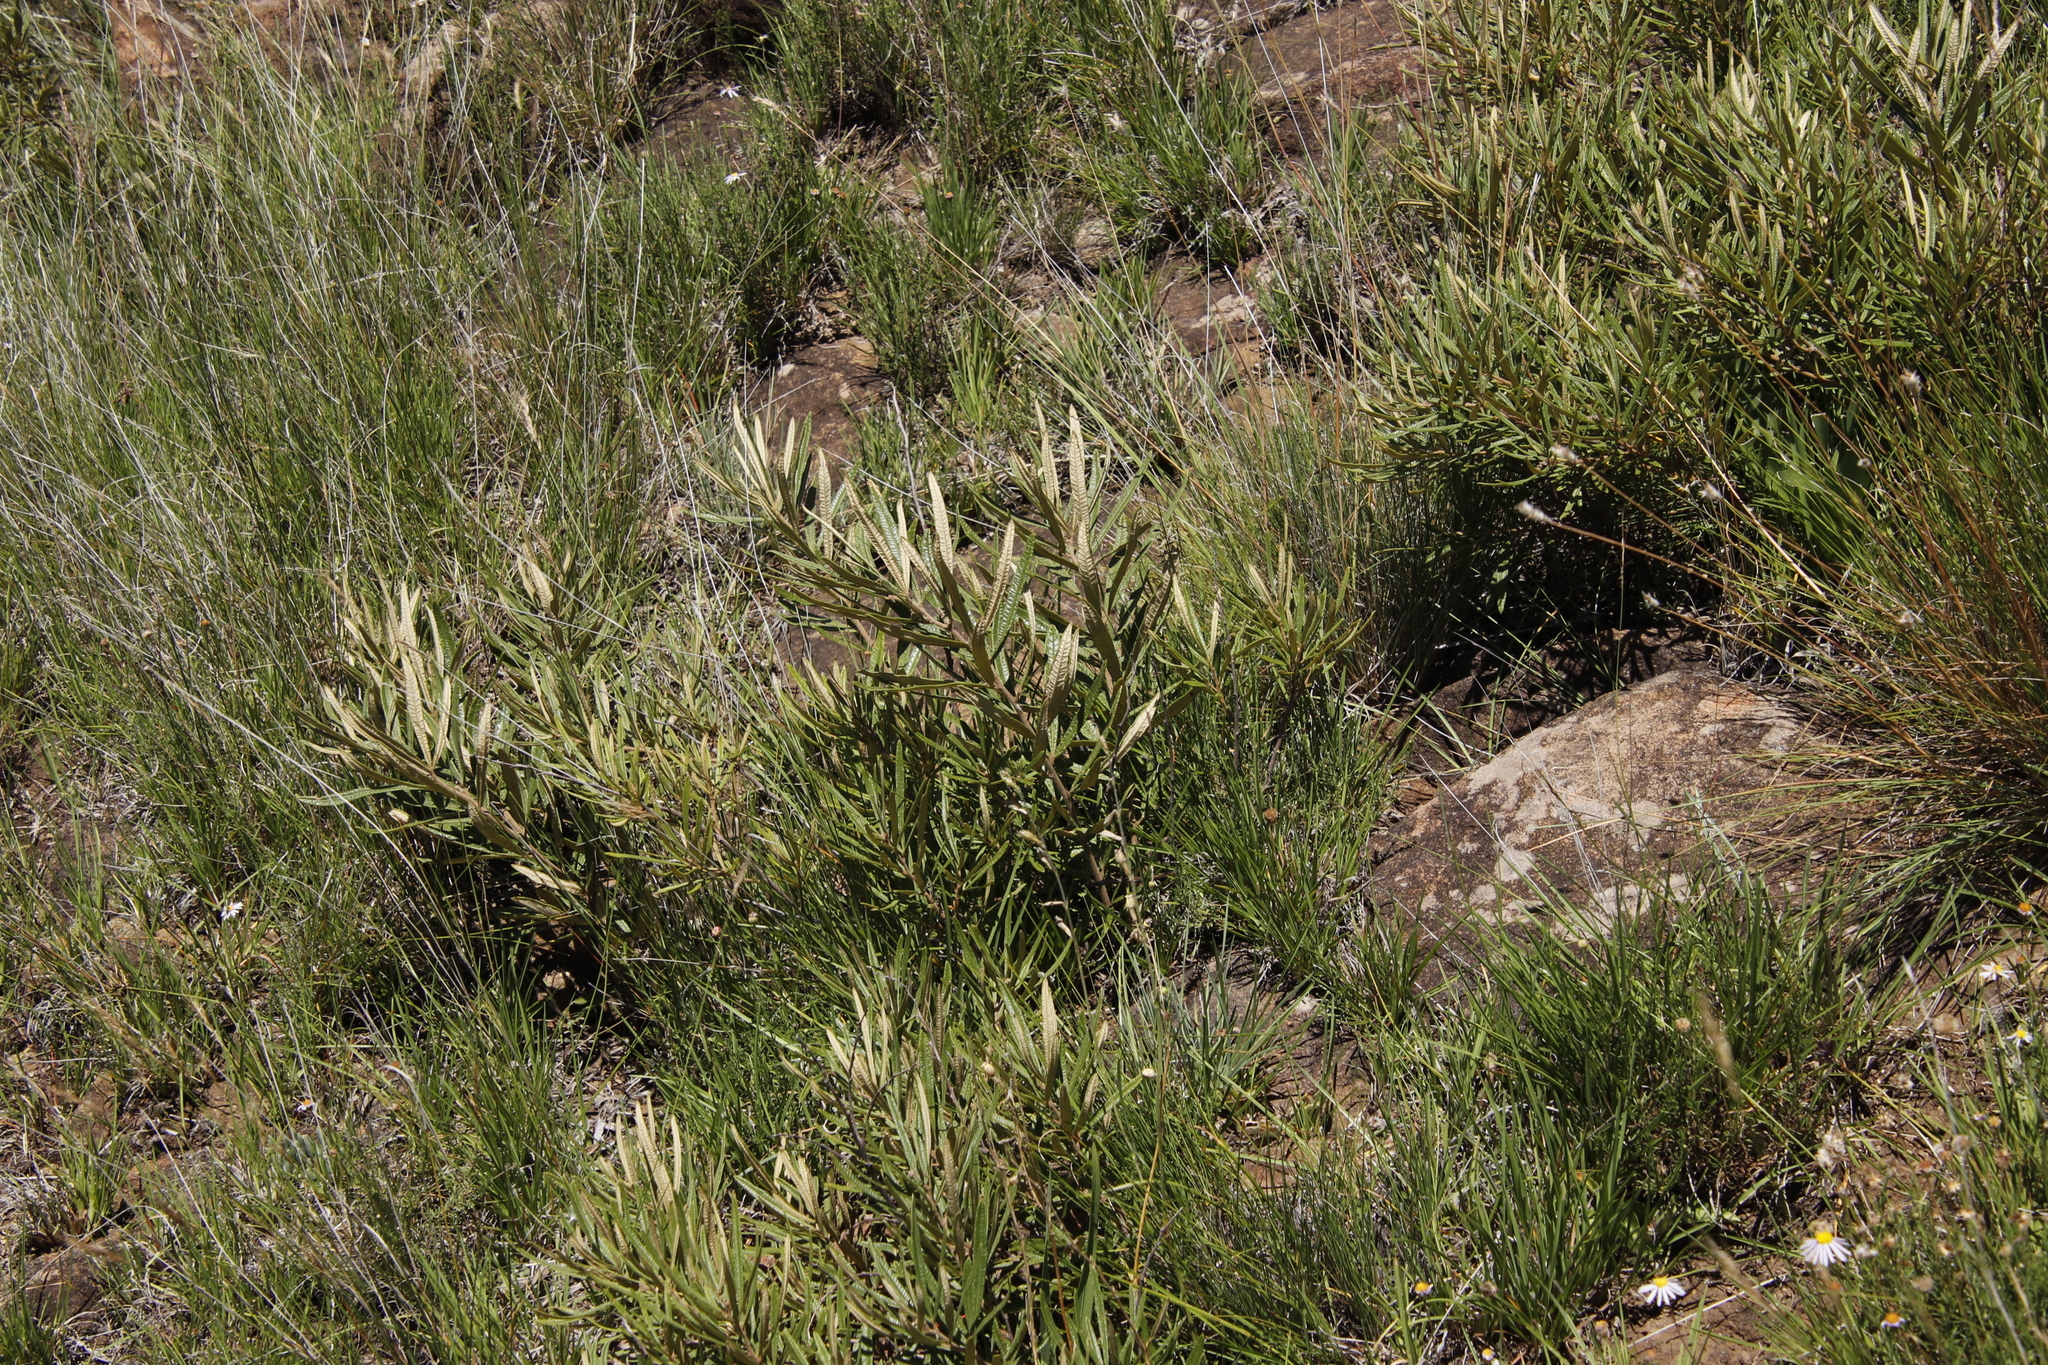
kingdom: Plantae
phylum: Tracheophyta
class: Magnoliopsida
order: Sapindales
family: Anacardiaceae
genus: Searsia
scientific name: Searsia discolor
